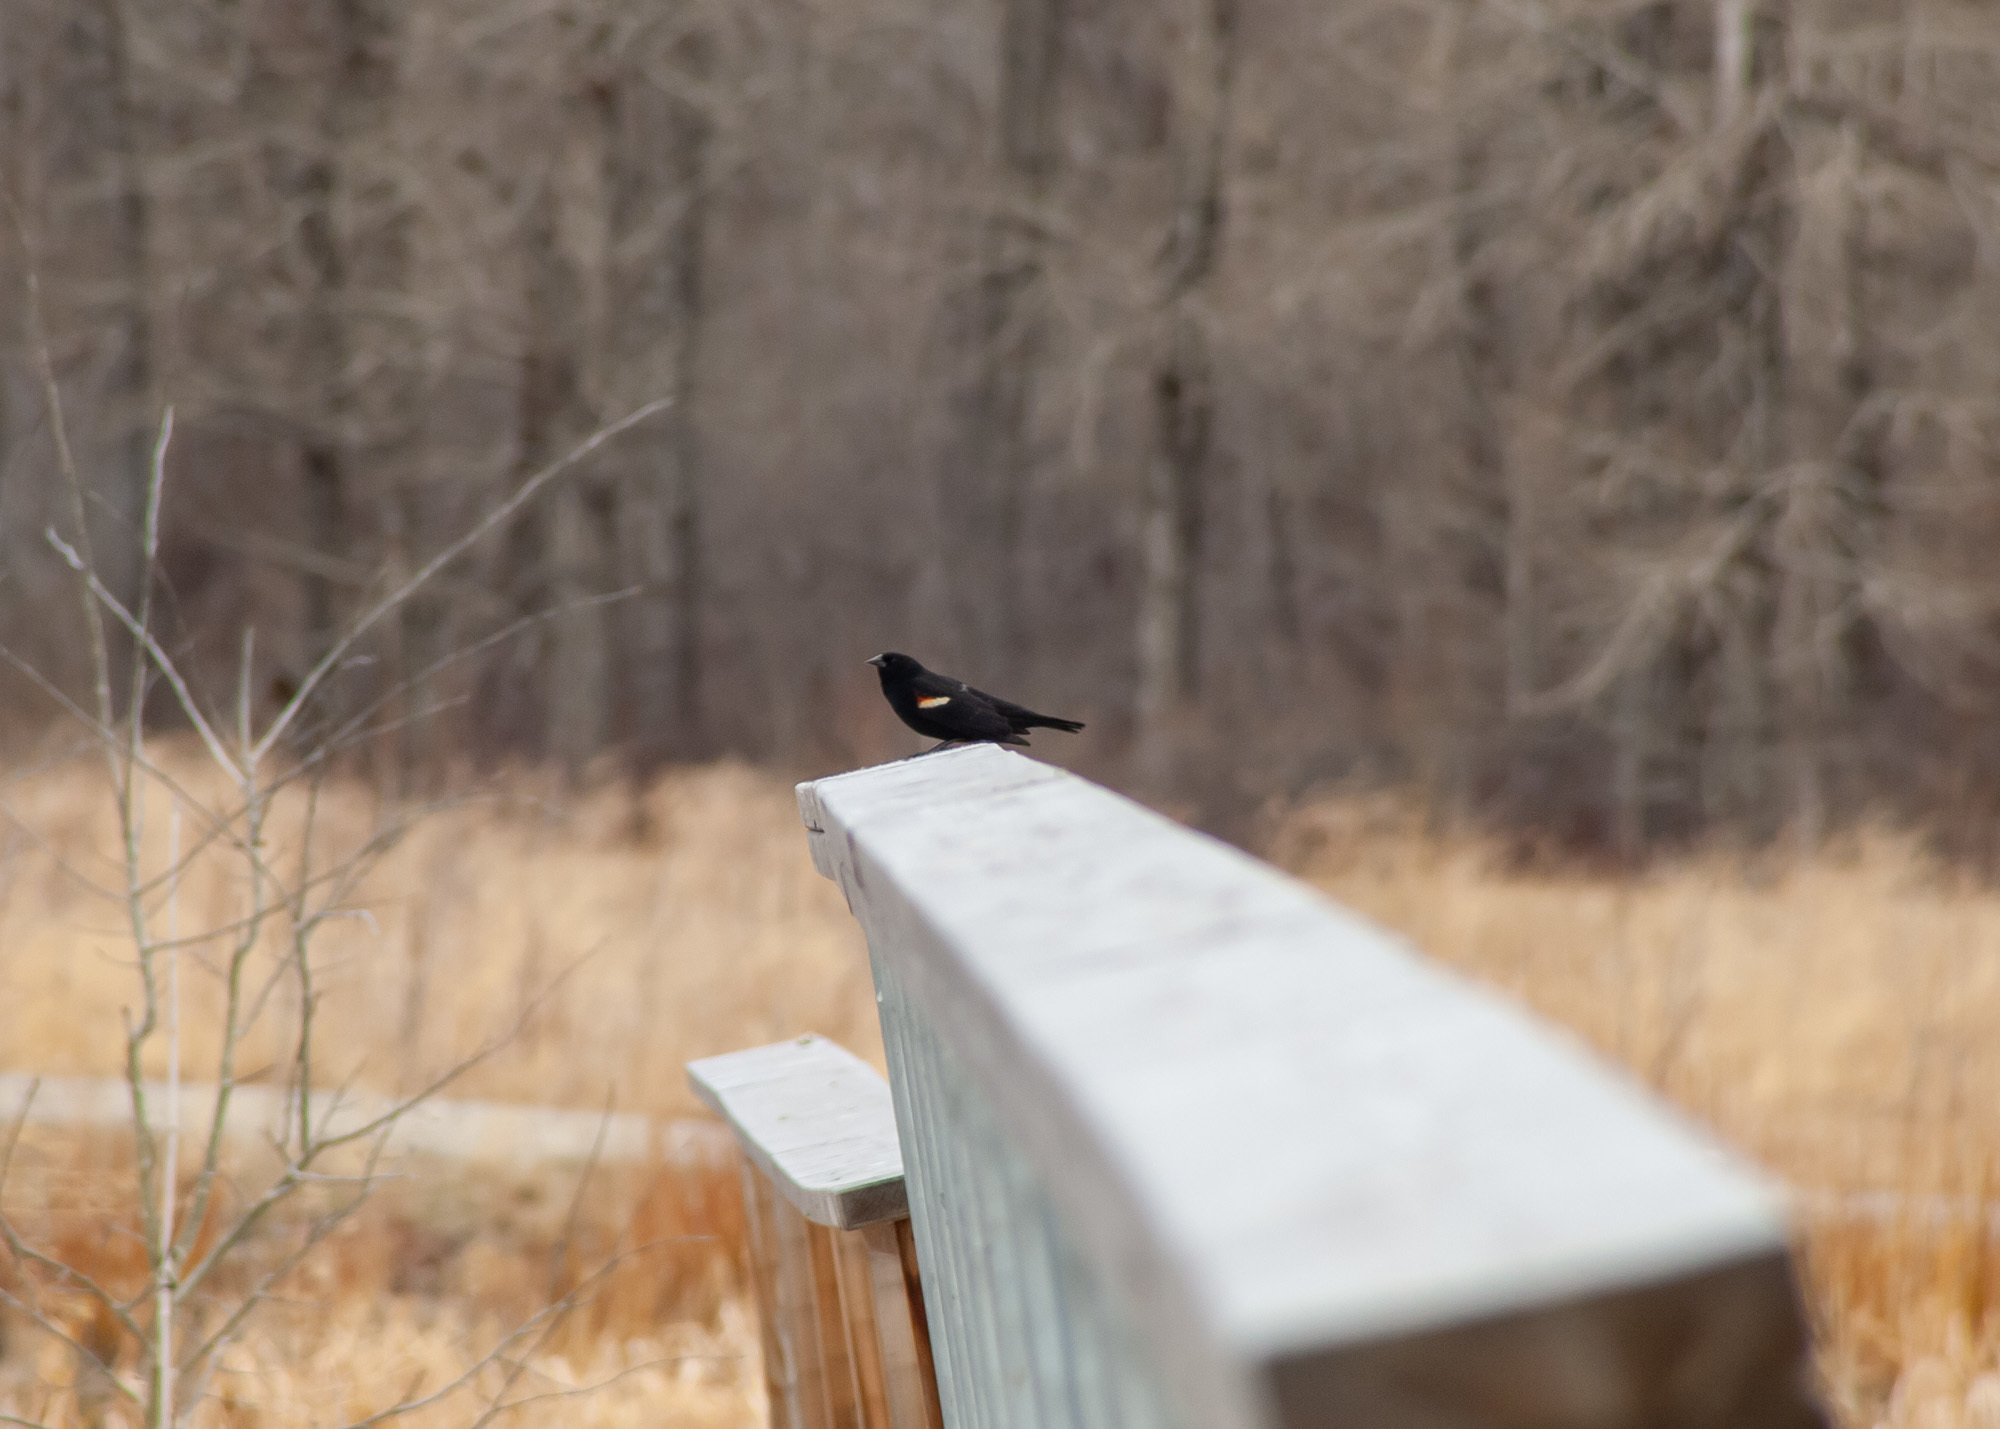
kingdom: Animalia
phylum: Chordata
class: Aves
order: Passeriformes
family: Icteridae
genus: Agelaius
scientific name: Agelaius phoeniceus
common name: Red-winged blackbird
